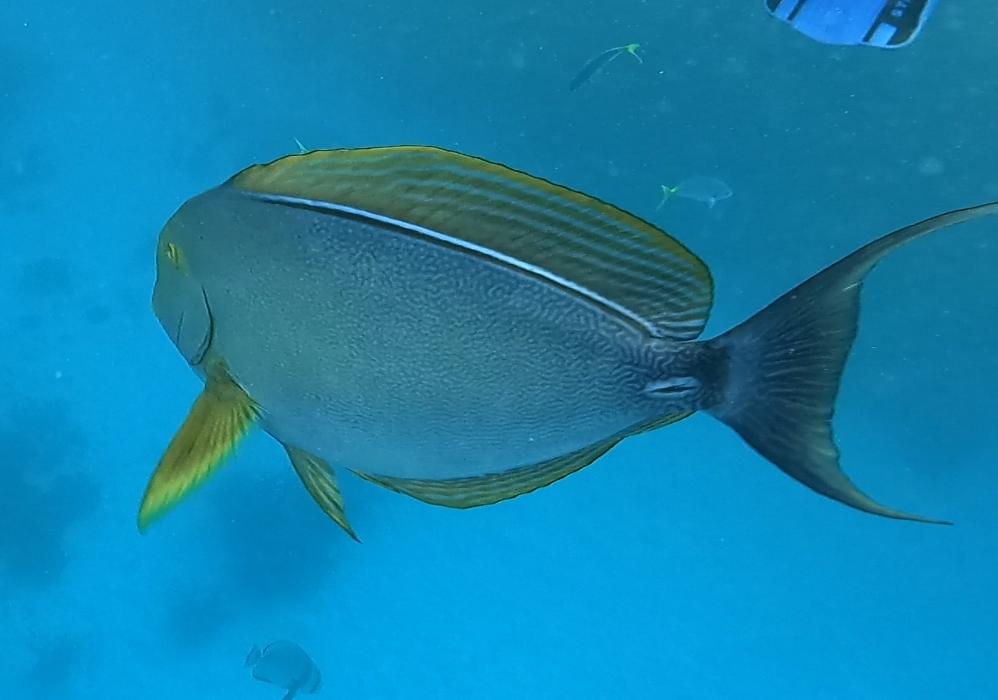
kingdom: Animalia
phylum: Chordata
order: Perciformes
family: Acanthuridae
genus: Acanthurus
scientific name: Acanthurus xanthopterus
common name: Cuvier's surgeonfish
